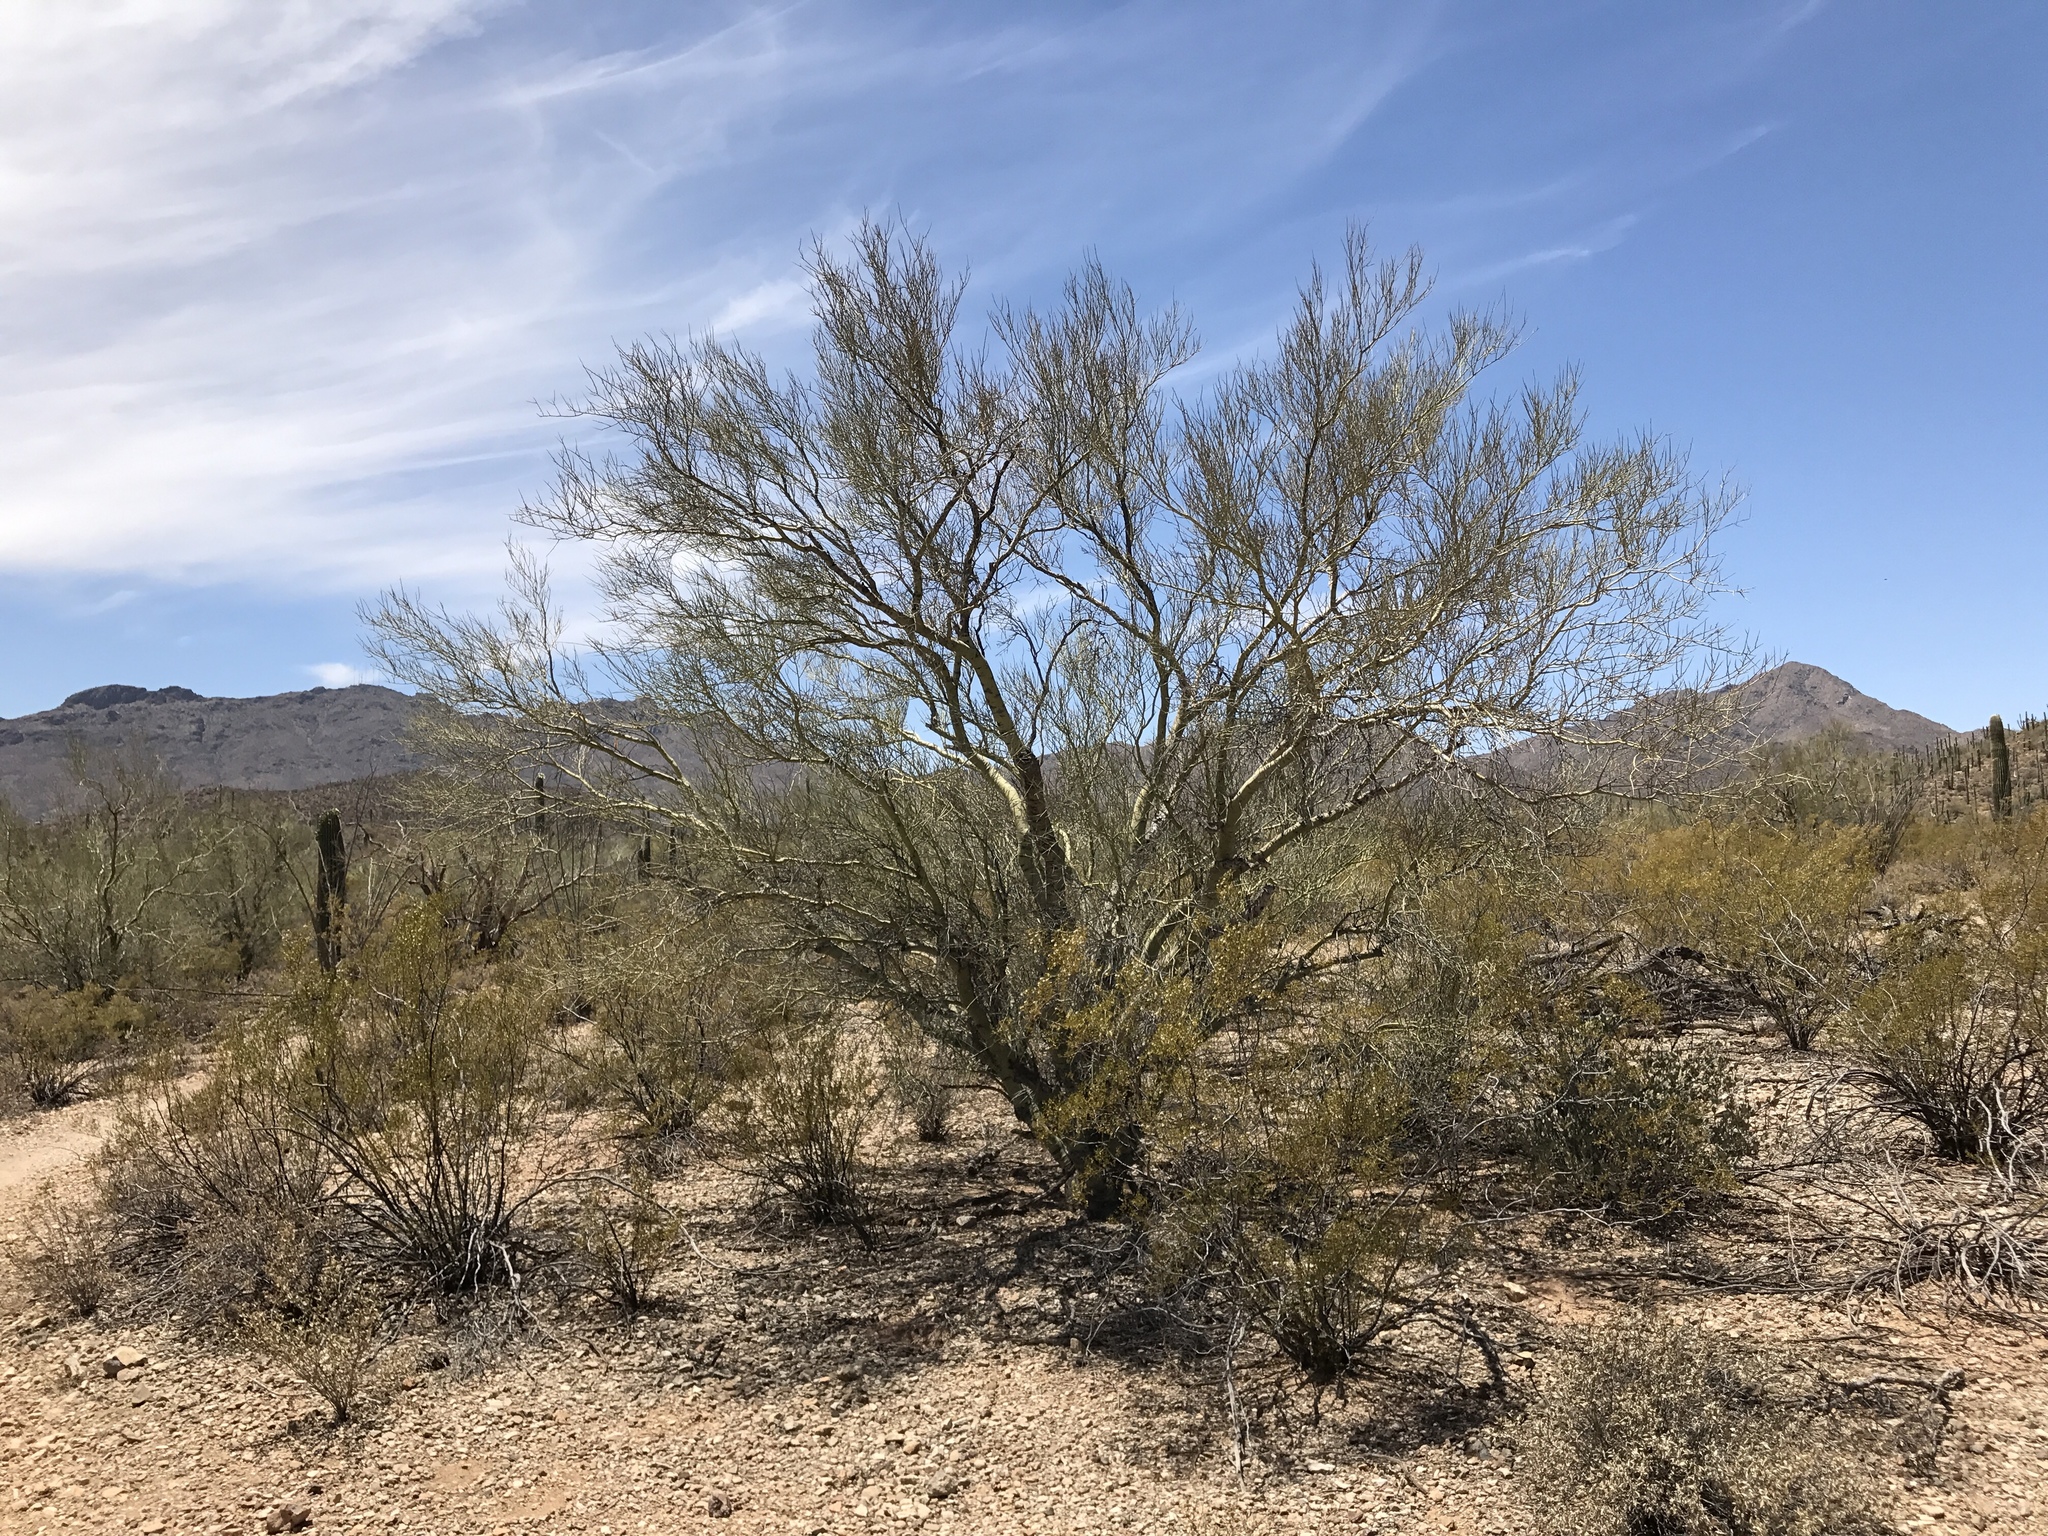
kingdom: Plantae
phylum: Tracheophyta
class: Magnoliopsida
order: Fabales
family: Fabaceae
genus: Parkinsonia
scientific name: Parkinsonia microphylla
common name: Yellow paloverde
